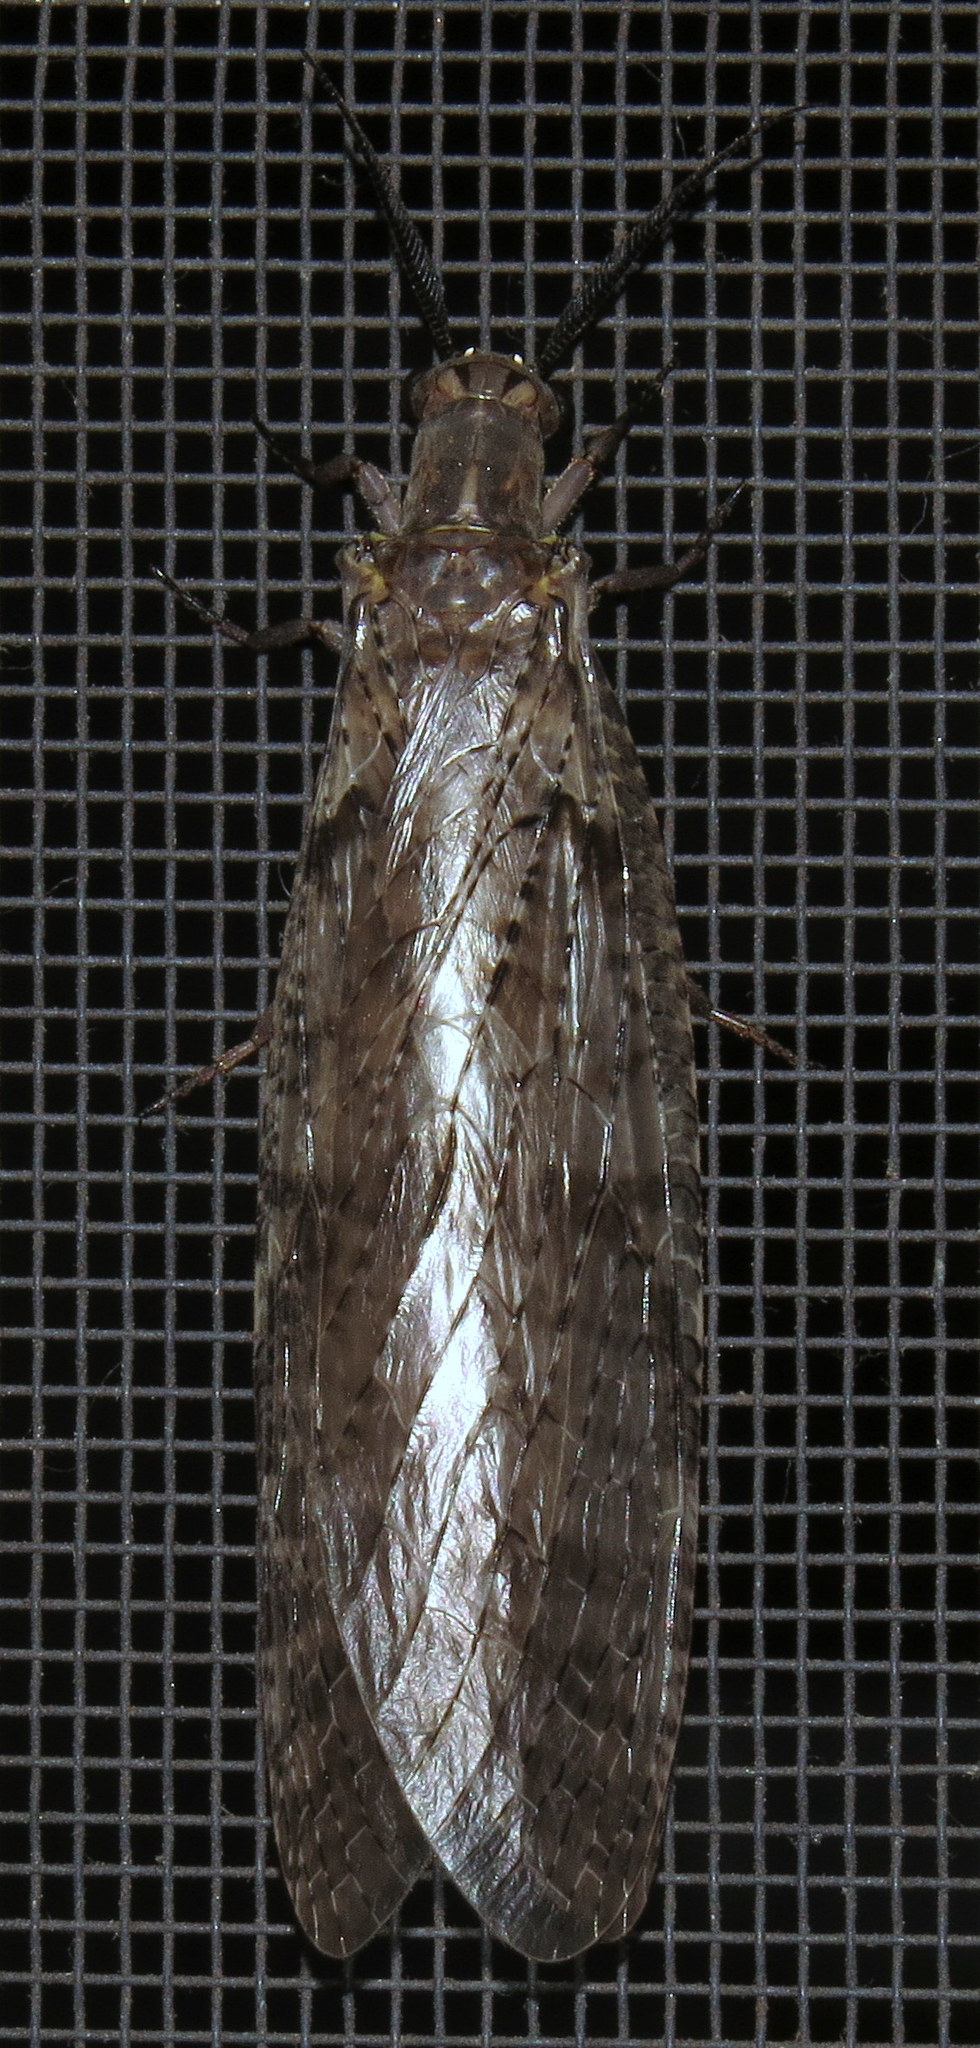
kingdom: Animalia
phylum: Arthropoda
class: Insecta
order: Megaloptera
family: Corydalidae
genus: Chauliodes
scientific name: Chauliodes pectinicornis
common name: Summer fishfly
